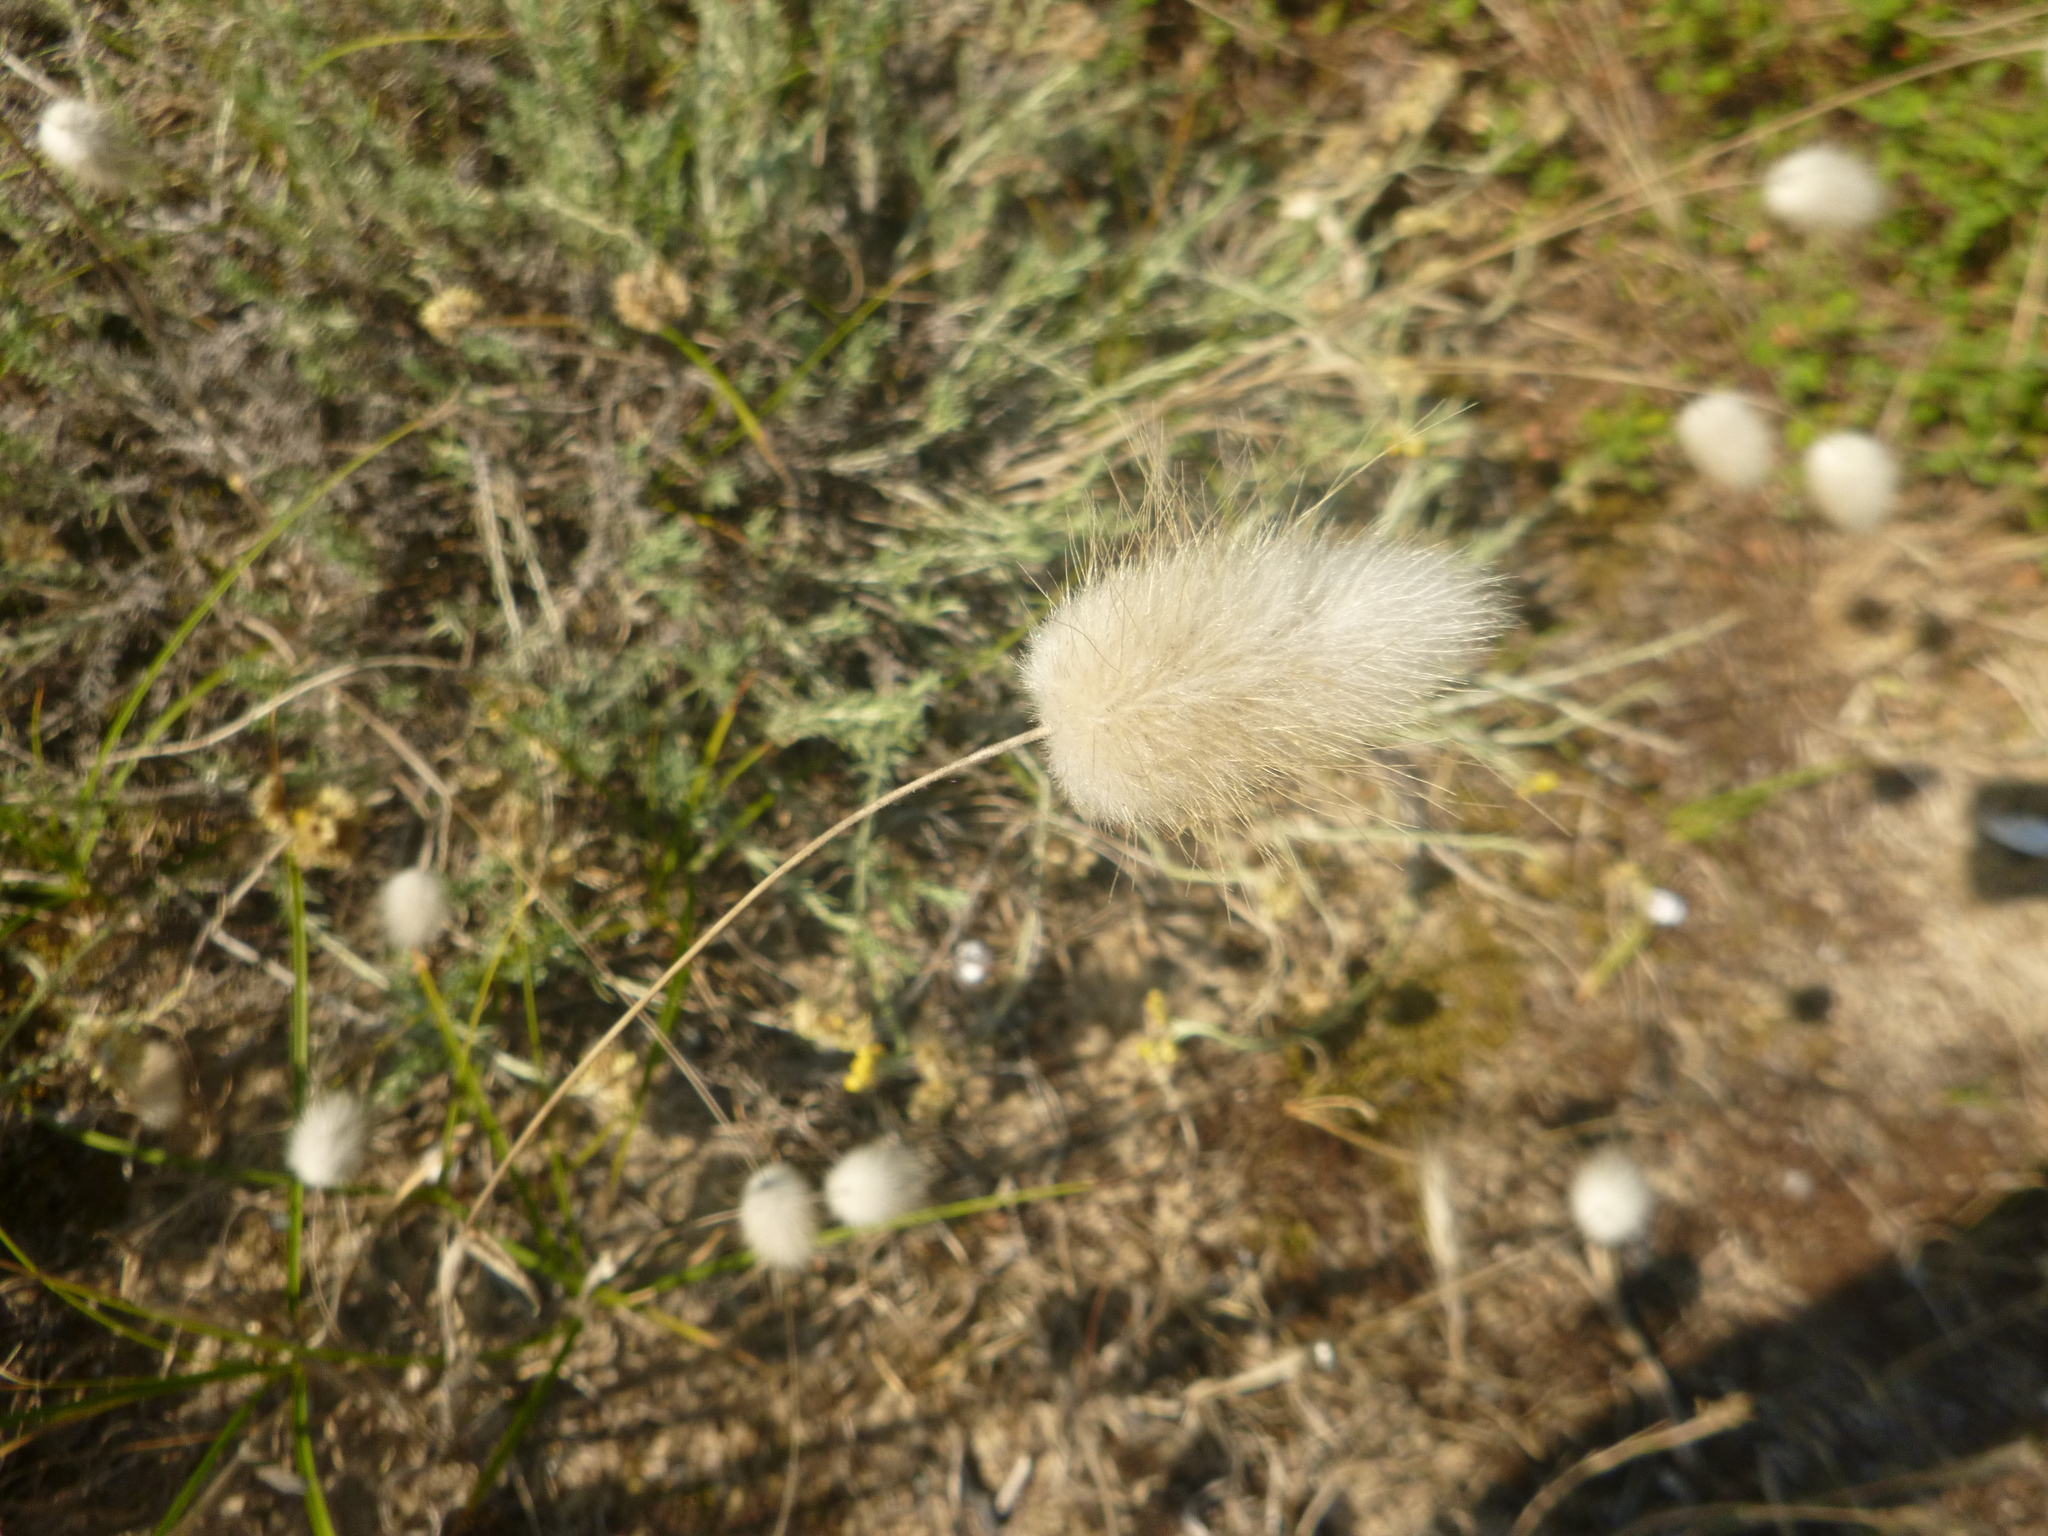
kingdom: Plantae
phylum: Tracheophyta
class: Liliopsida
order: Poales
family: Poaceae
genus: Lagurus
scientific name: Lagurus ovatus
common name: Hare's-tail
